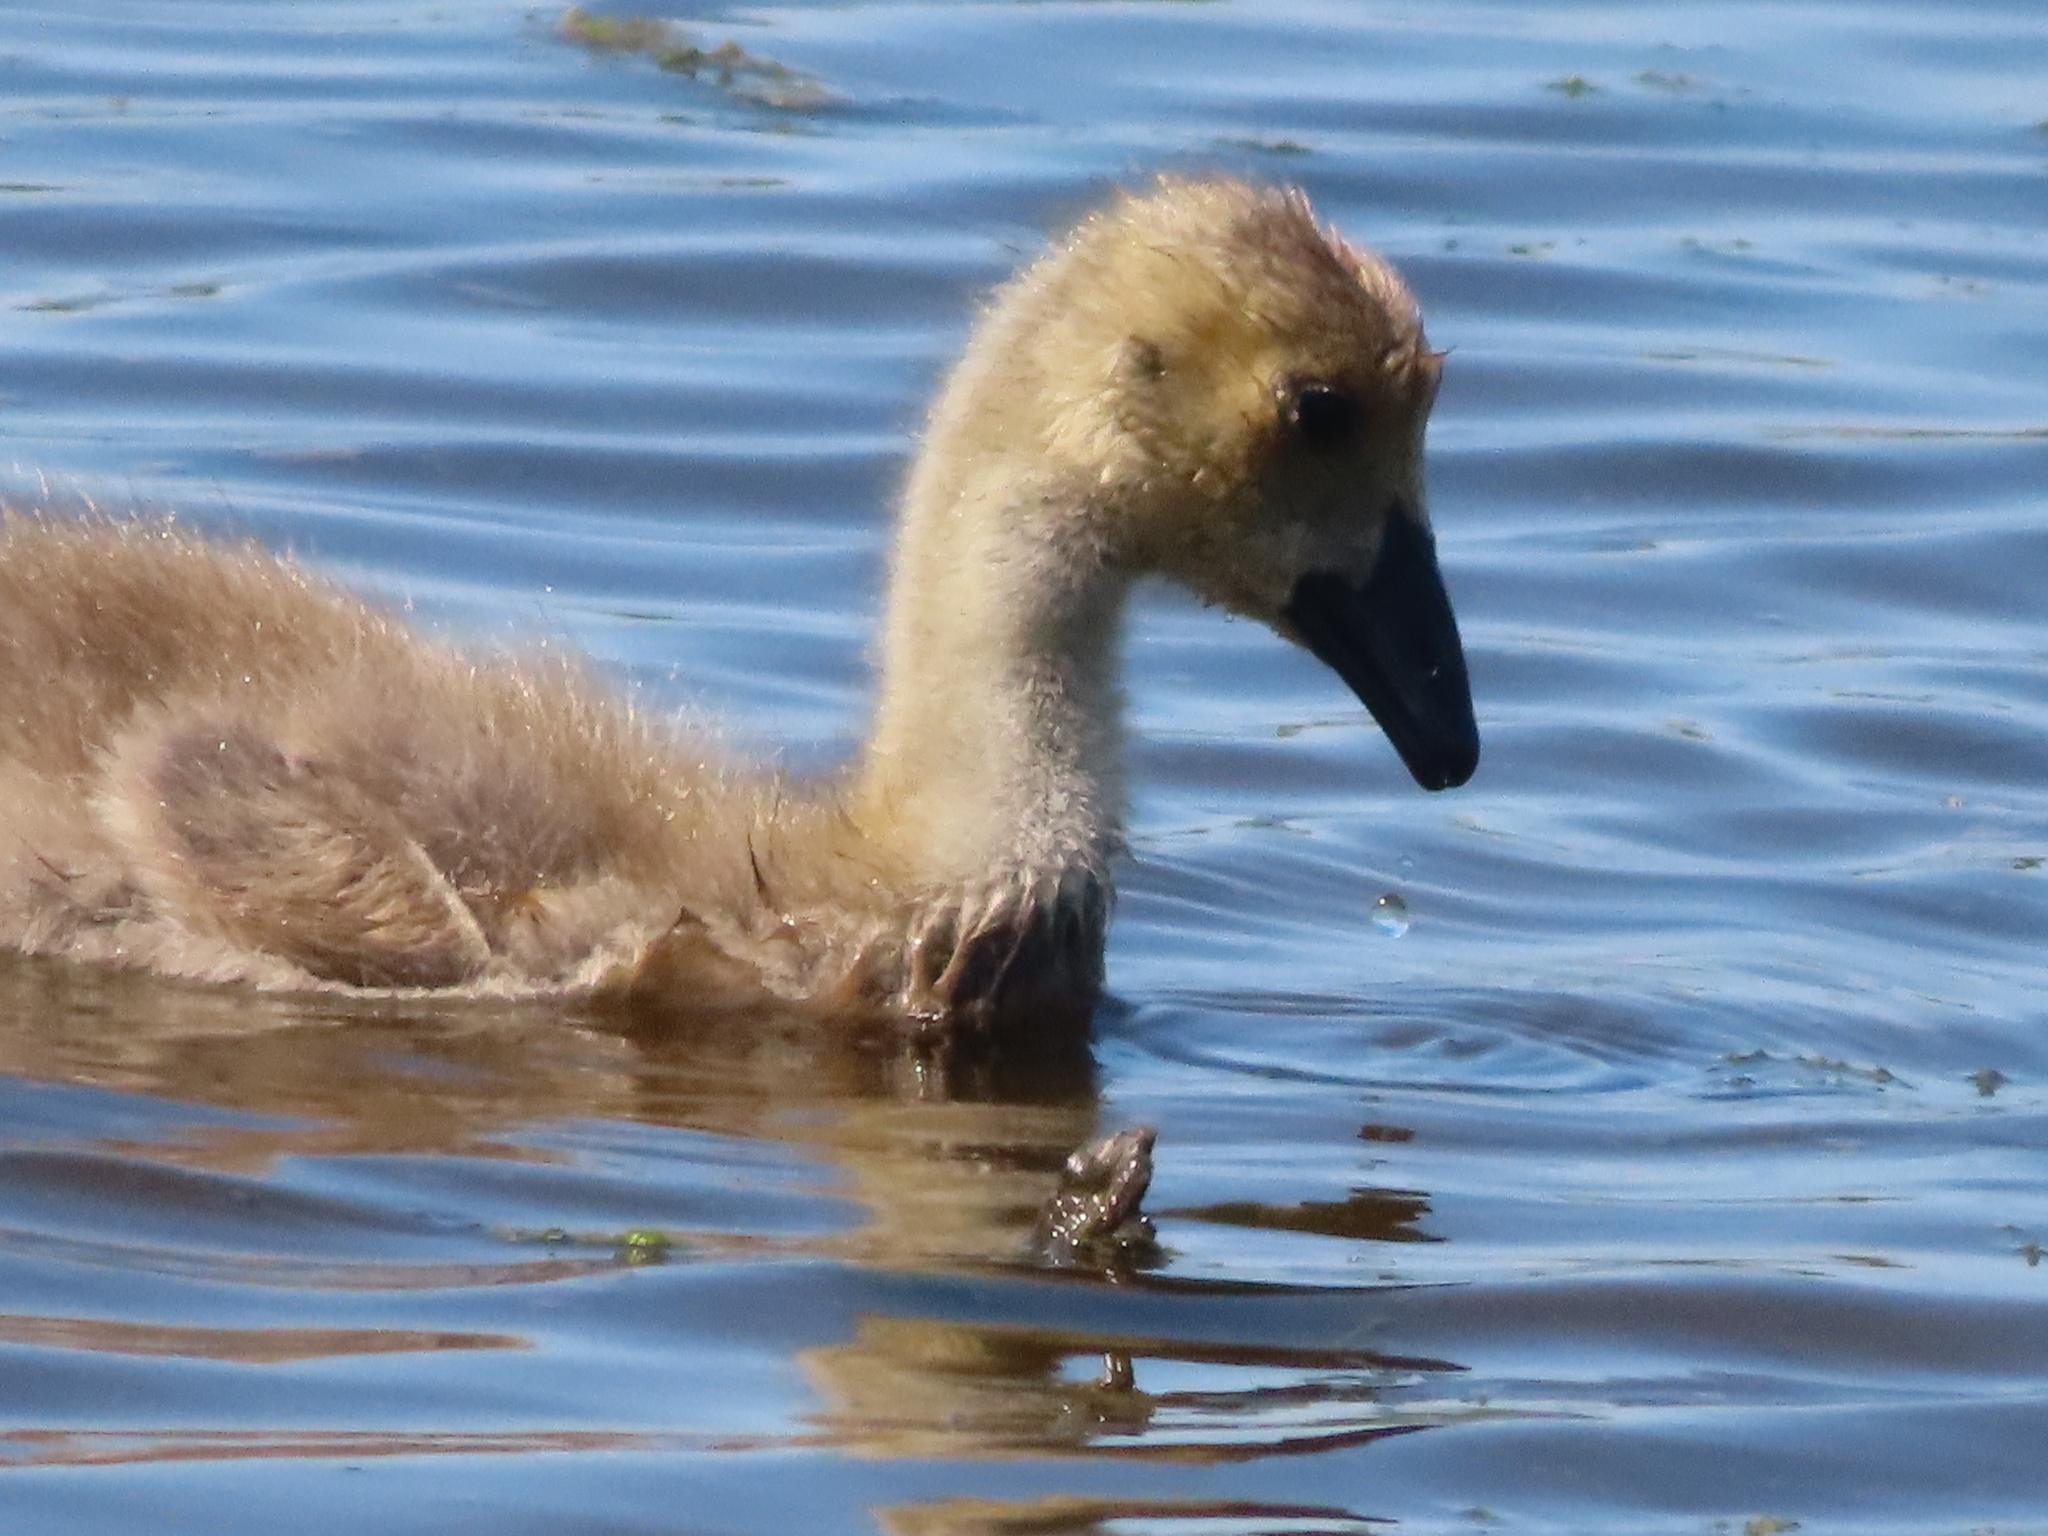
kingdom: Animalia
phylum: Chordata
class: Aves
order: Anseriformes
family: Anatidae
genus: Branta
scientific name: Branta canadensis
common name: Canada goose
